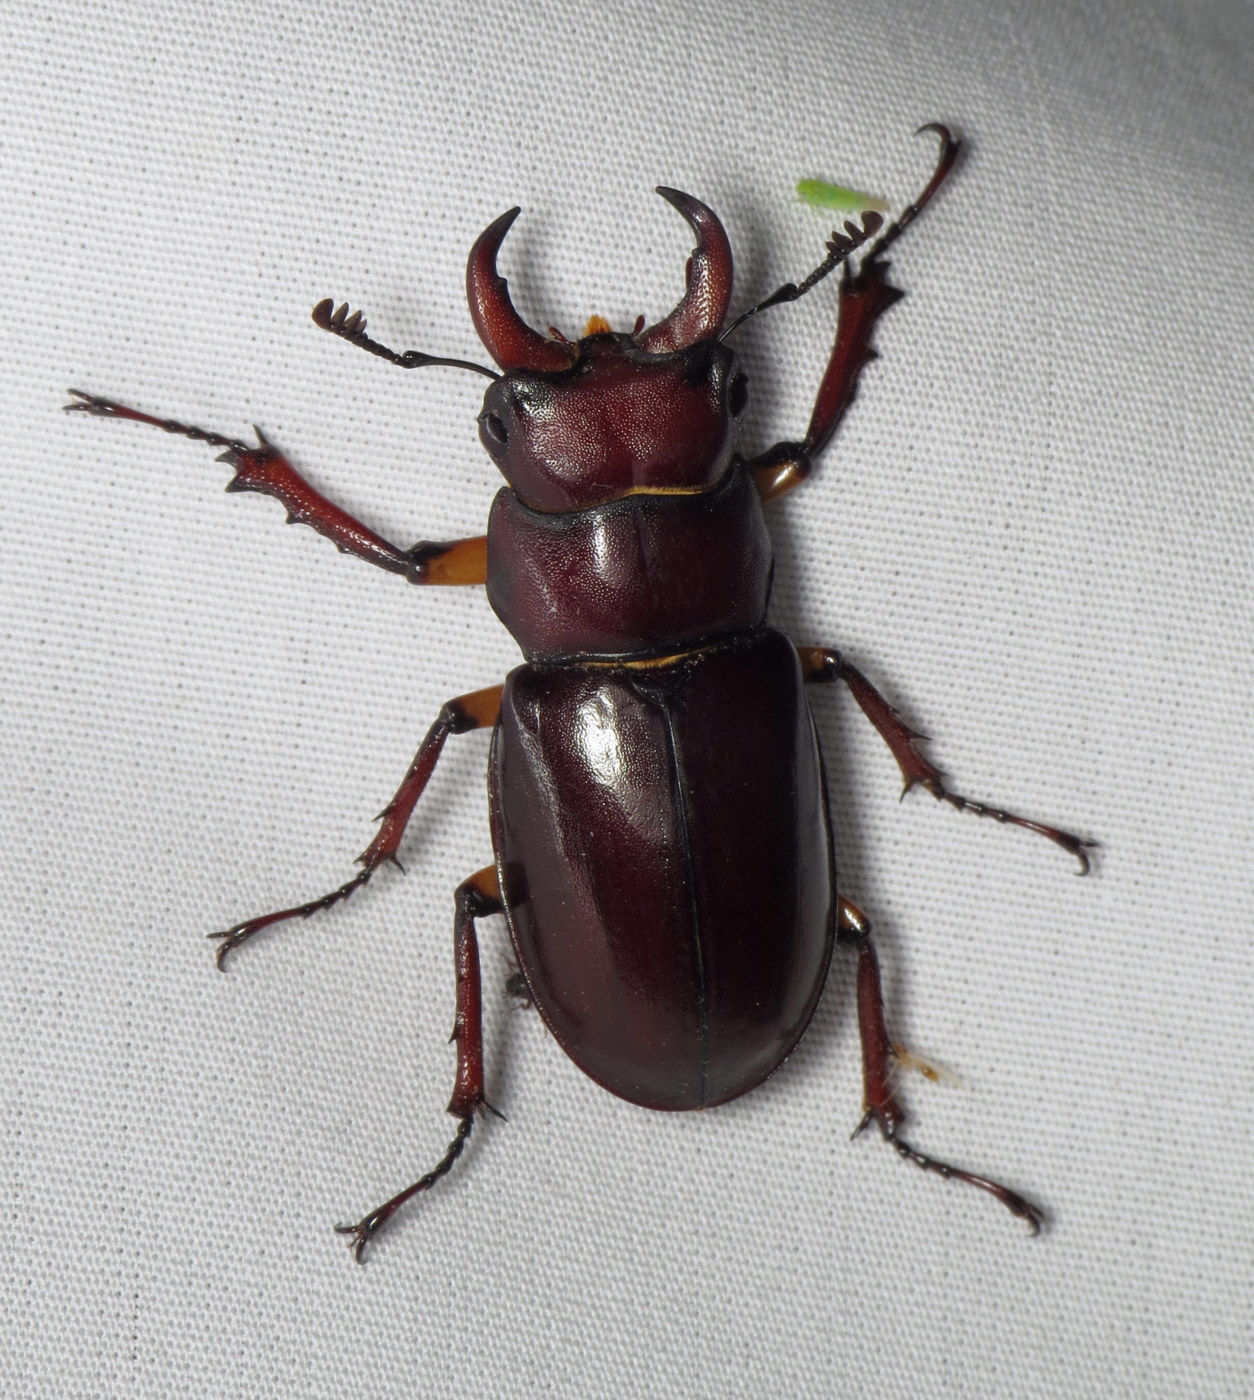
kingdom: Animalia
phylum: Arthropoda
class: Insecta
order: Coleoptera
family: Lucanidae
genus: Lucanus
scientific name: Lucanus capreolus
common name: Stag beetle
